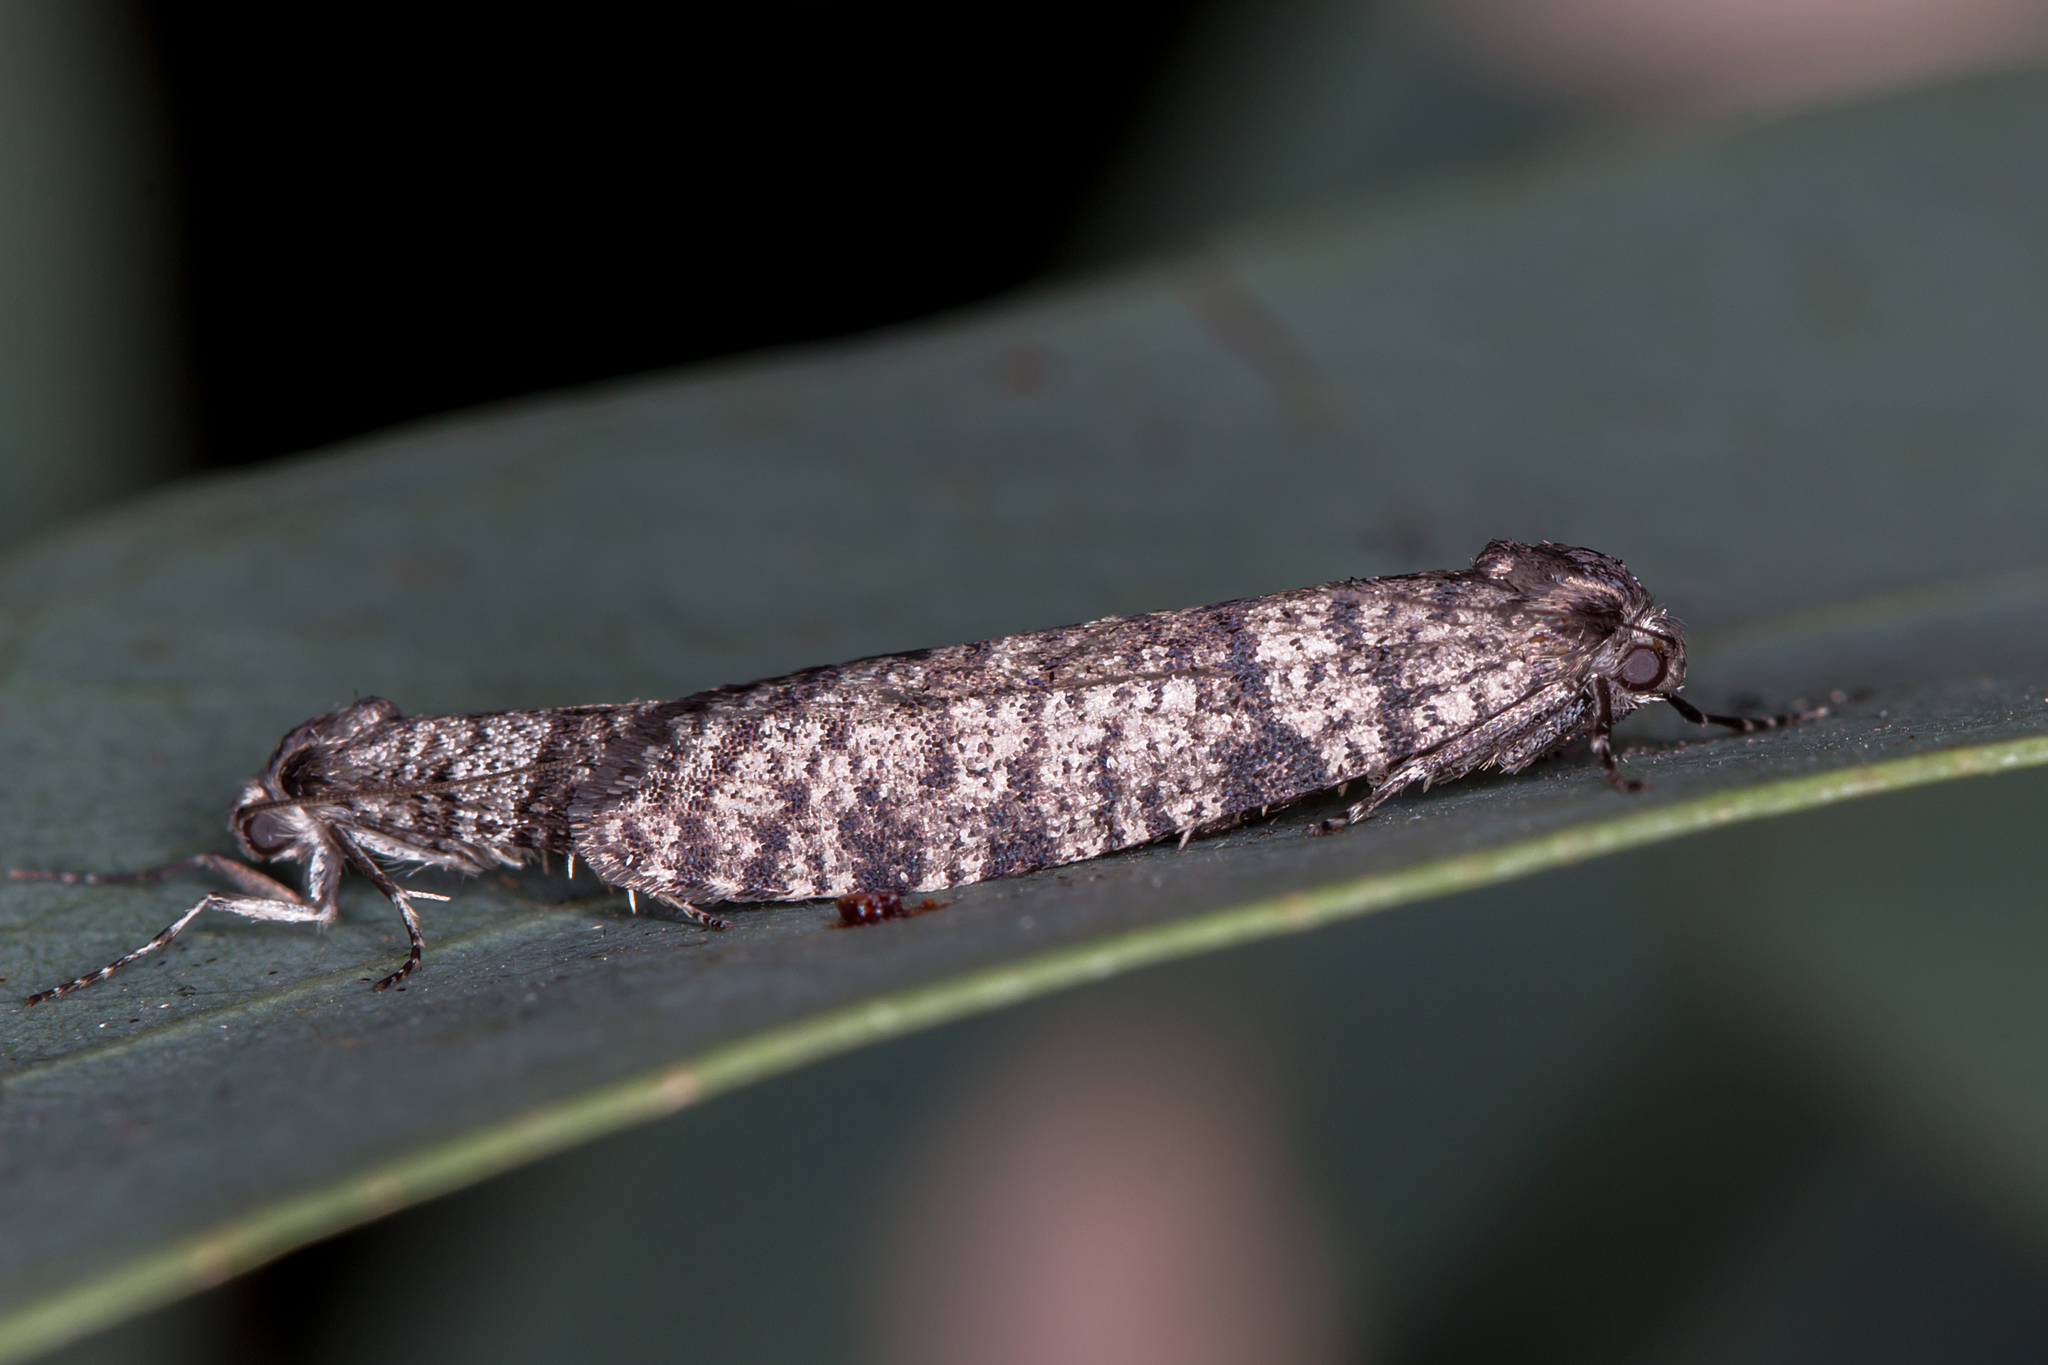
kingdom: Animalia
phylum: Arthropoda
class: Insecta
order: Lepidoptera
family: Psychidae
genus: Lepidoscia
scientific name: Lepidoscia annosella
